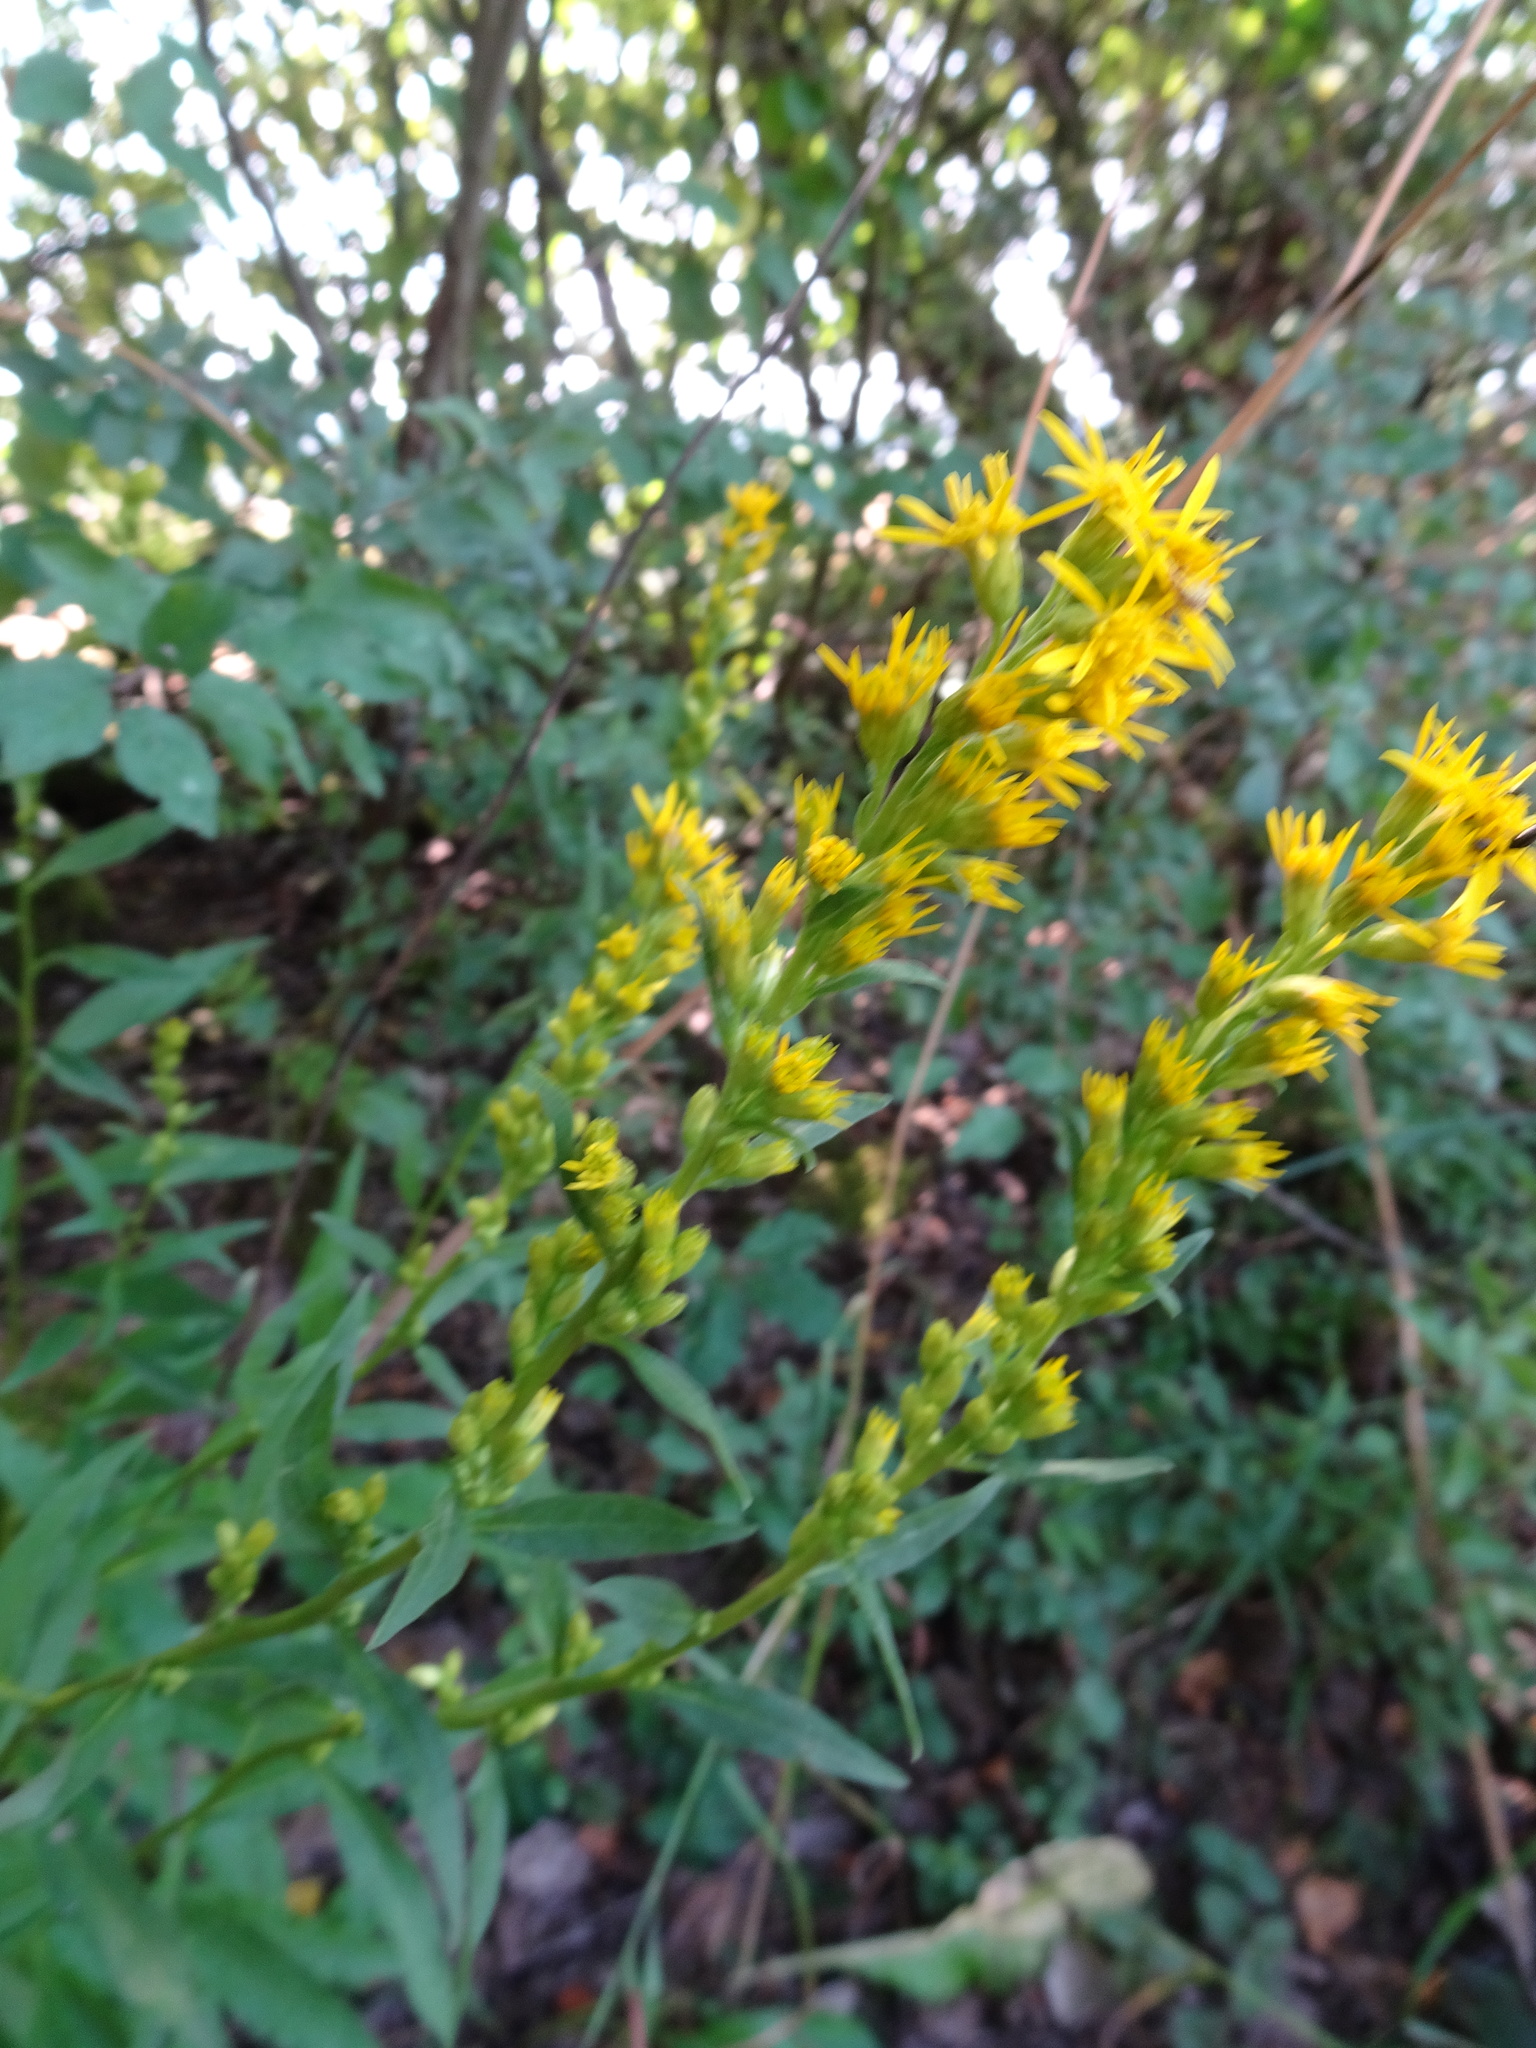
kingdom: Plantae
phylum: Tracheophyta
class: Magnoliopsida
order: Asterales
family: Asteraceae
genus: Solidago
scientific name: Solidago virgaurea
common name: Goldenrod
